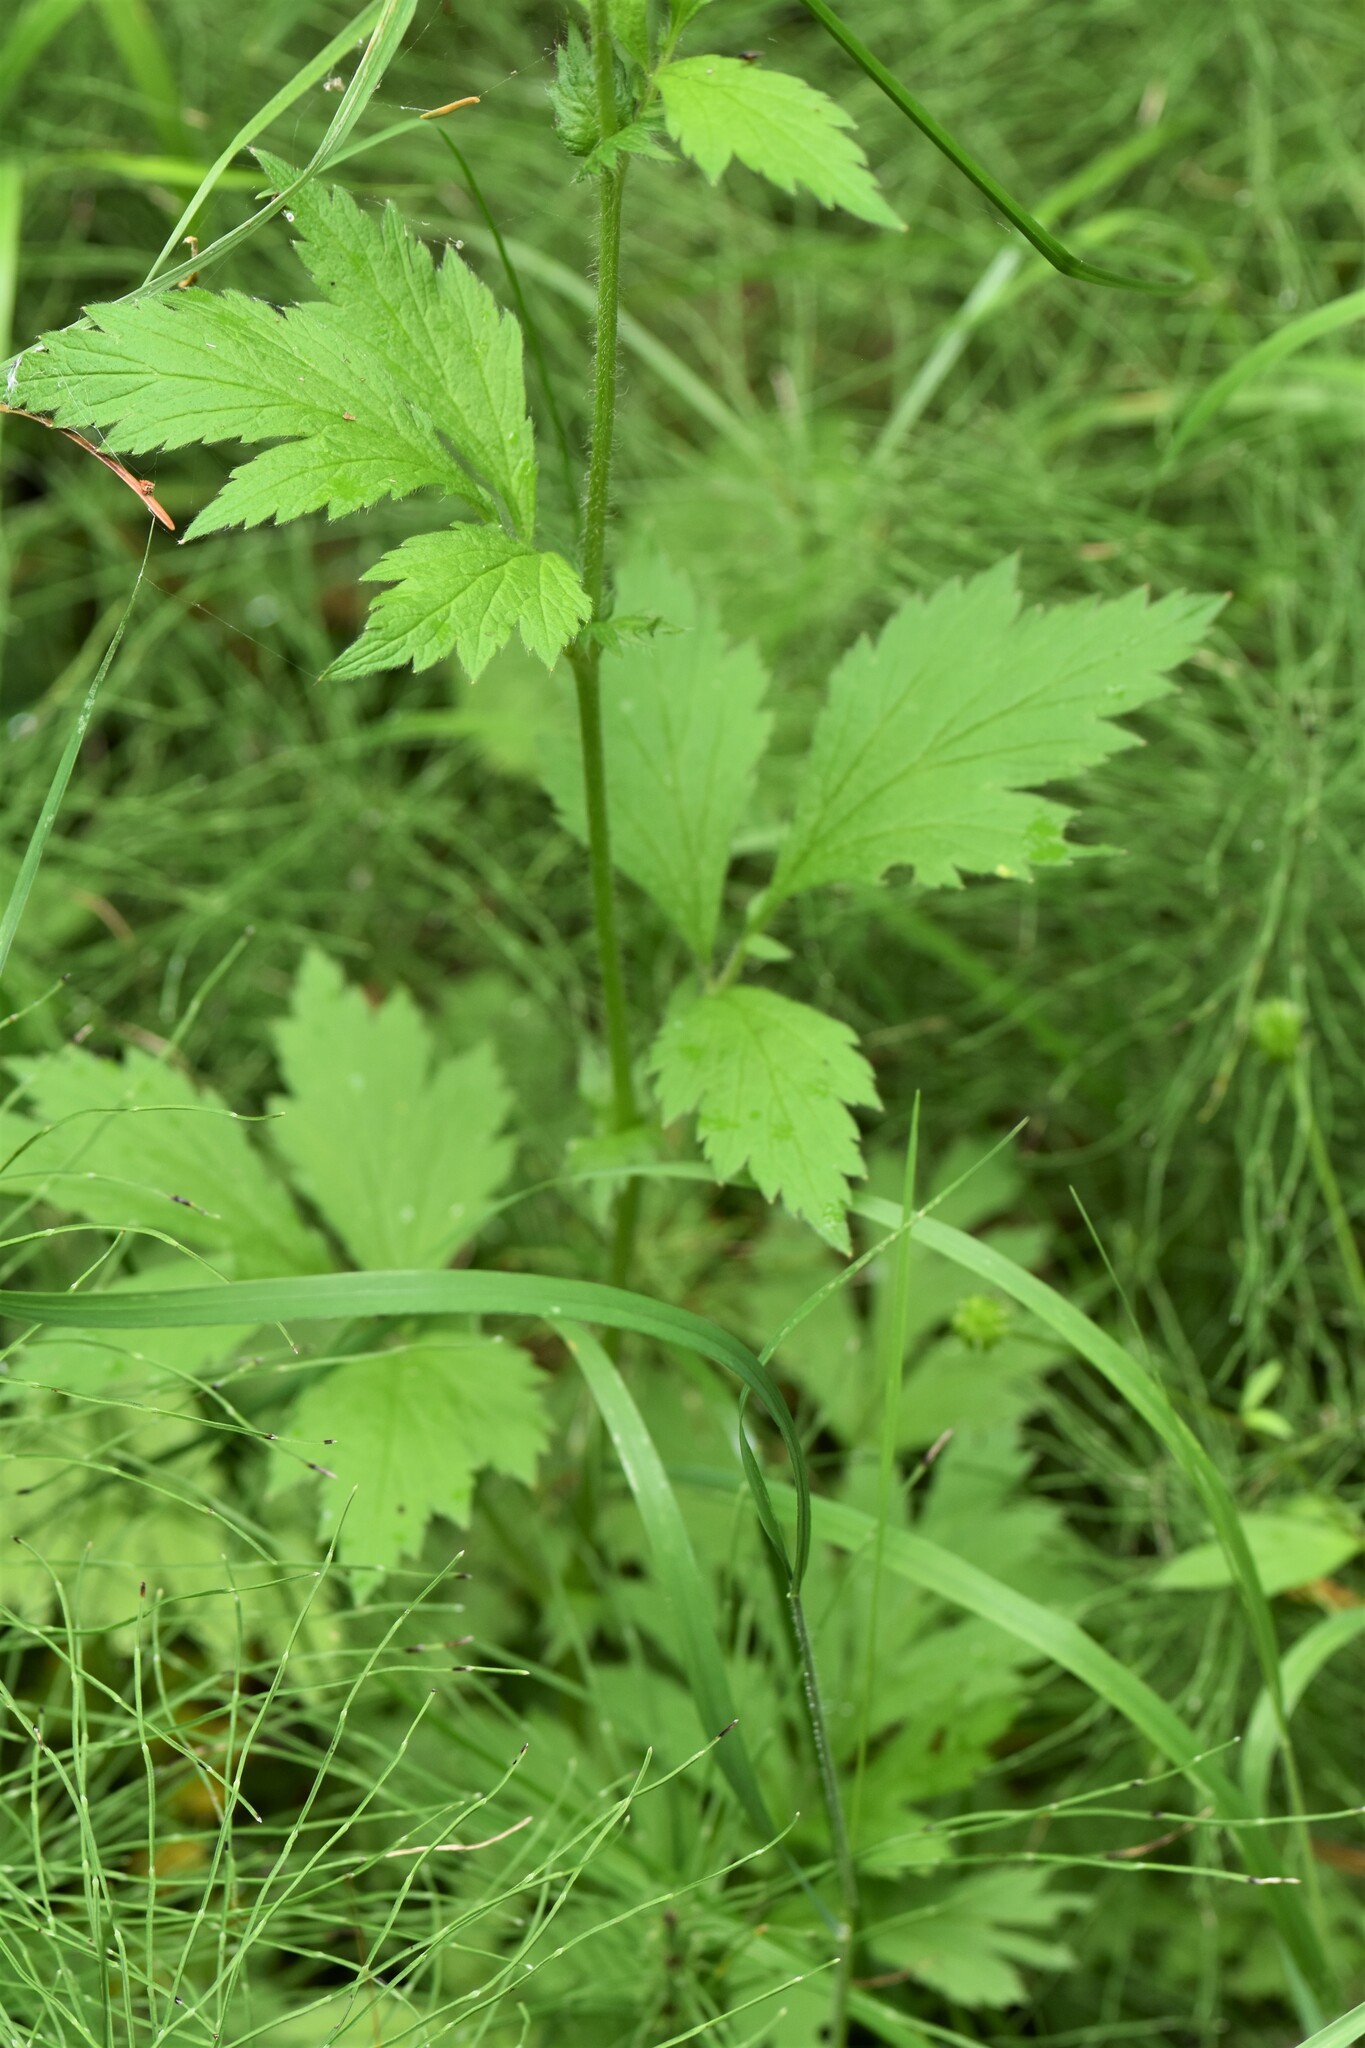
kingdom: Plantae
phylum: Tracheophyta
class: Magnoliopsida
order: Rosales
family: Rosaceae
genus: Geum
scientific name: Geum aleppicum
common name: Yellow avens
